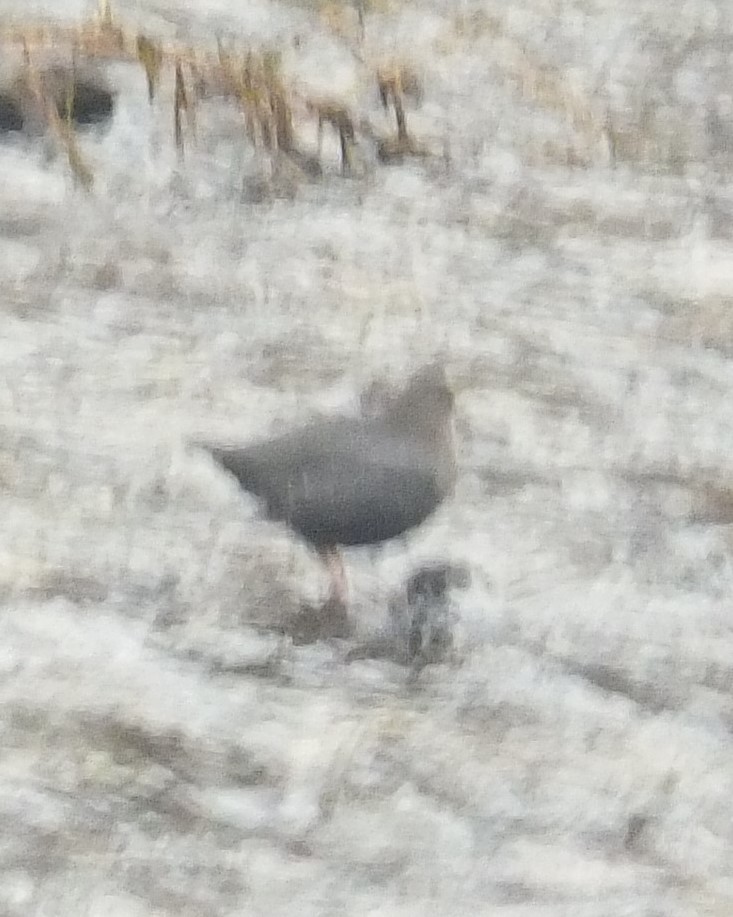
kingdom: Animalia
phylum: Chordata
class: Aves
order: Passeriformes
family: Cinclidae
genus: Cinclus
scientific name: Cinclus mexicanus
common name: American dipper
